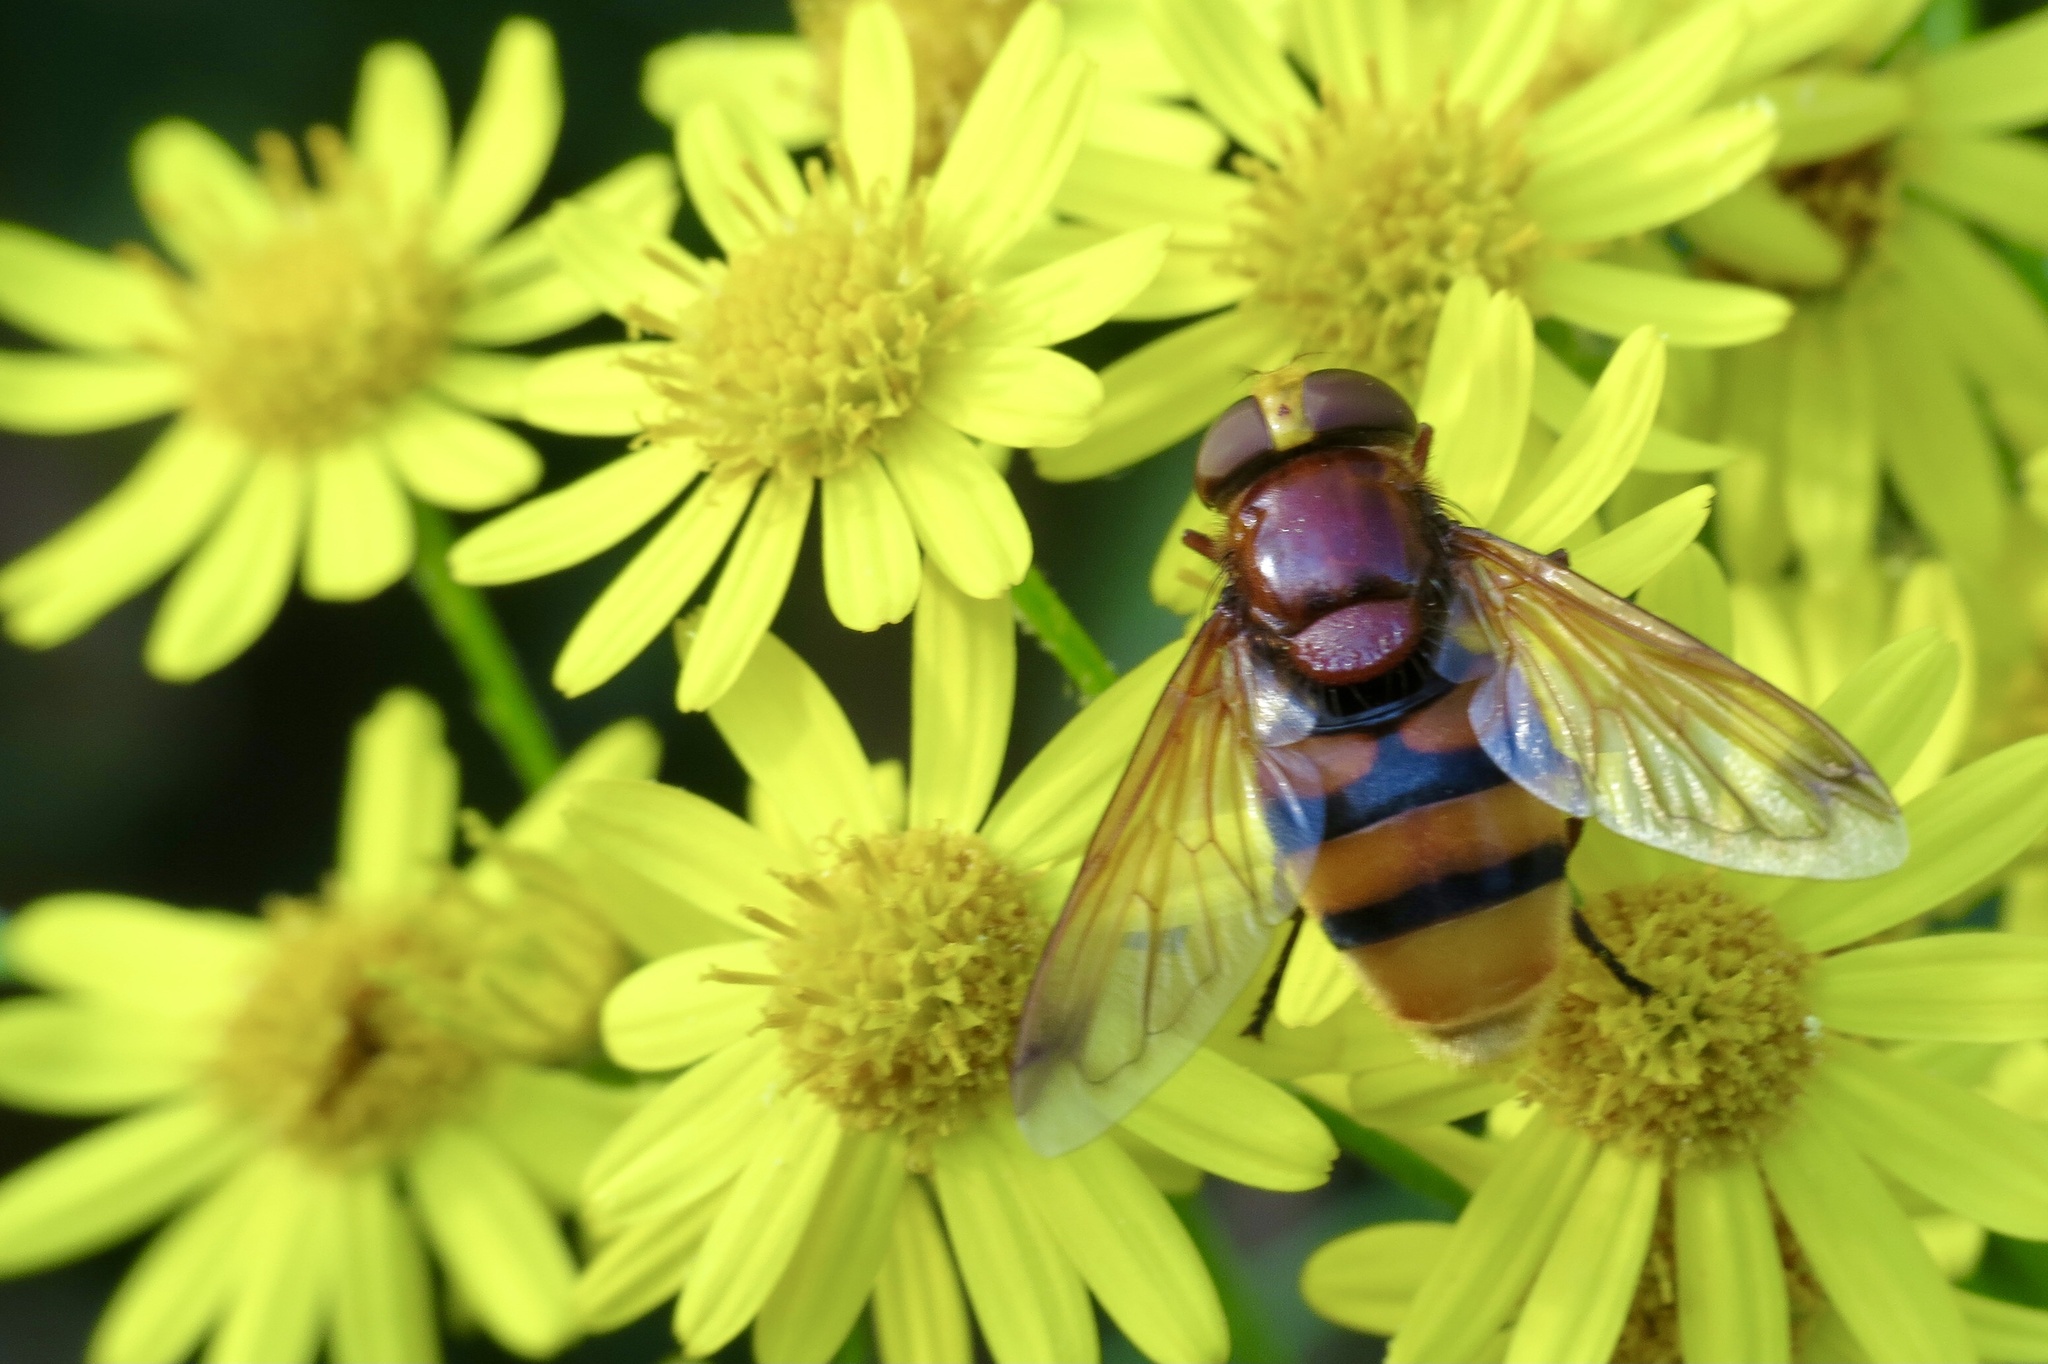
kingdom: Animalia
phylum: Arthropoda
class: Insecta
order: Diptera
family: Syrphidae
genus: Volucella
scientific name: Volucella zonaria
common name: Hornet hoverfly
